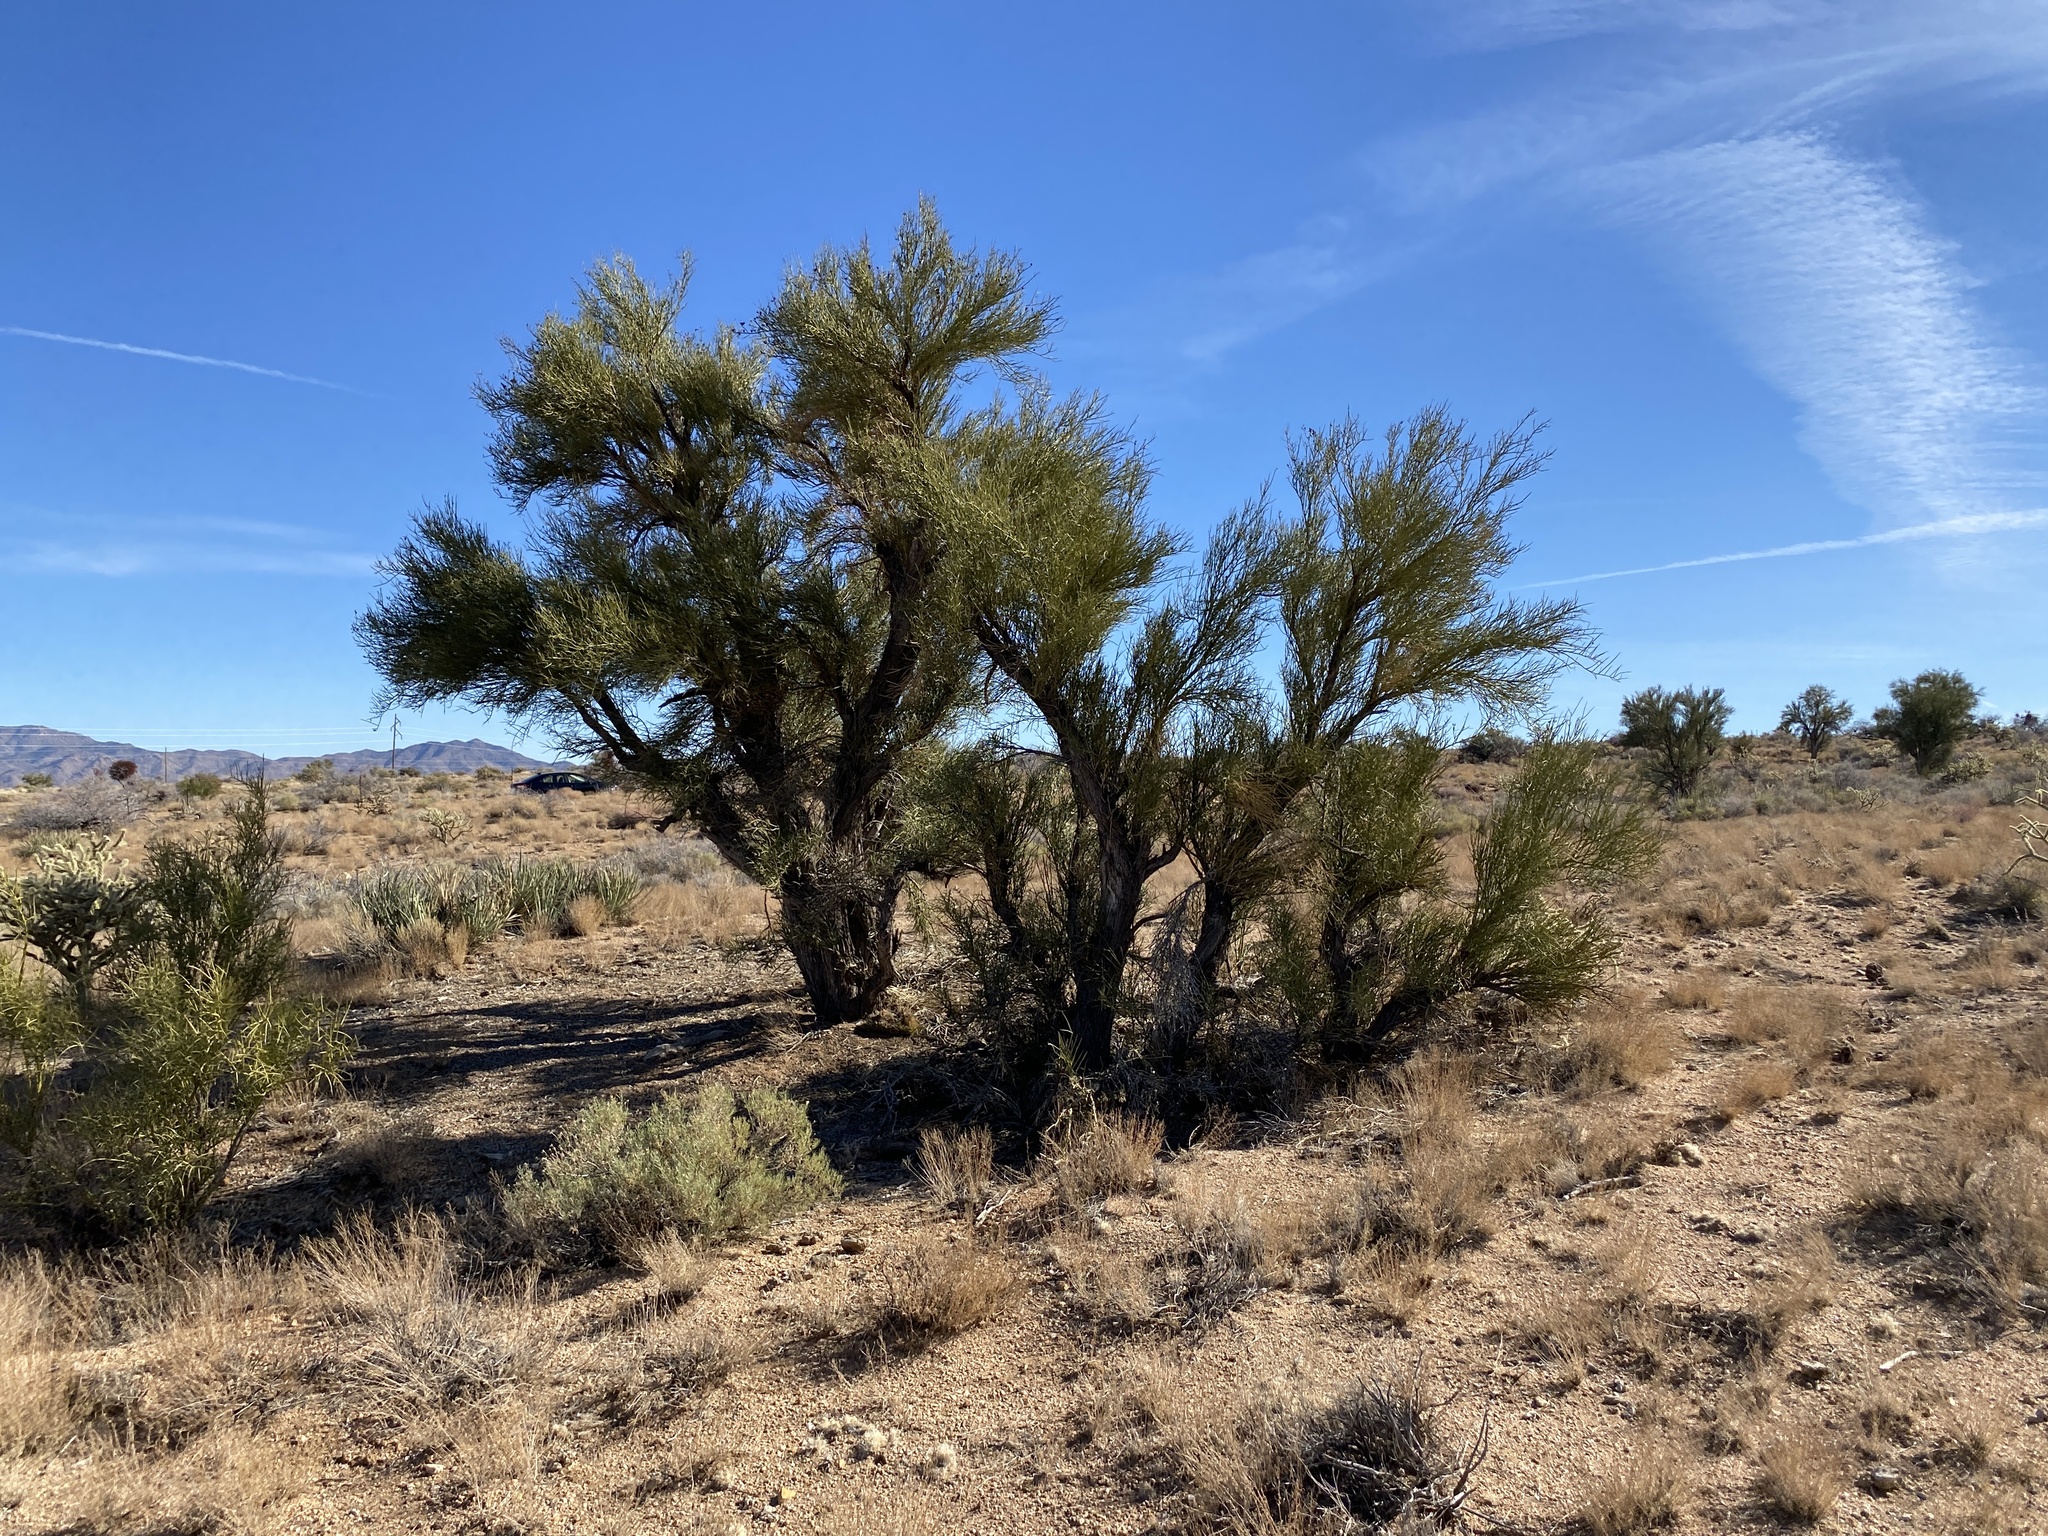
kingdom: Plantae
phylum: Tracheophyta
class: Magnoliopsida
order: Celastrales
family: Celastraceae
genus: Canotia
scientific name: Canotia holacantha
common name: Crucifixion thorns
